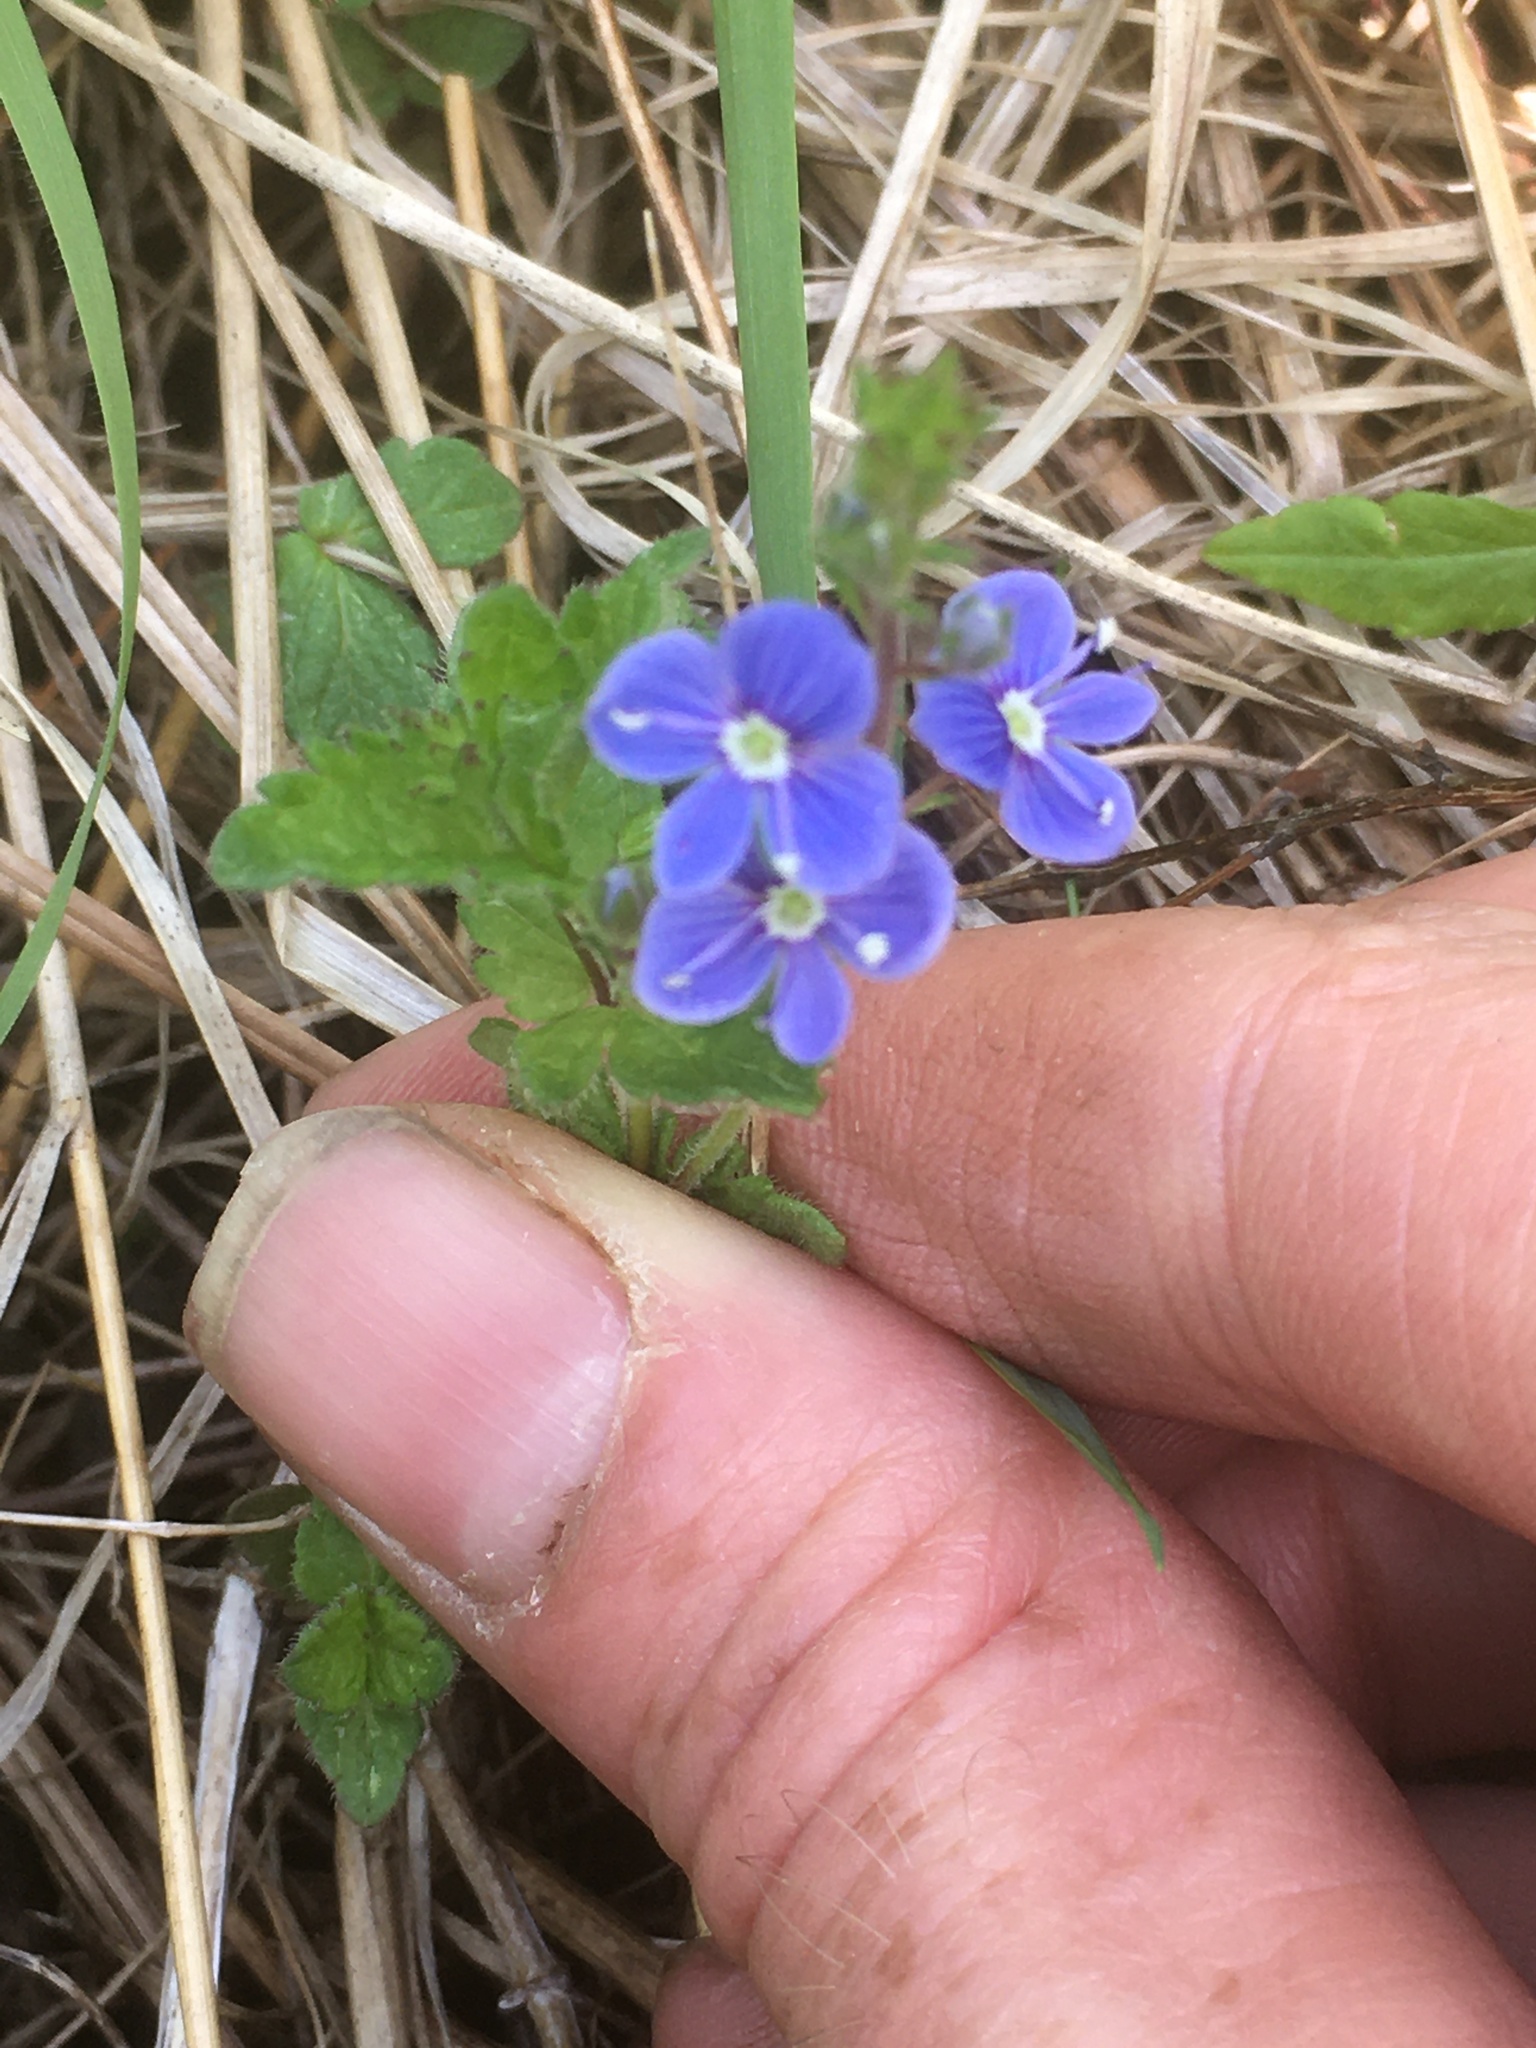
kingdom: Plantae
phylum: Tracheophyta
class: Magnoliopsida
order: Lamiales
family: Plantaginaceae
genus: Veronica
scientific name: Veronica chamaedrys
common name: Germander speedwell
